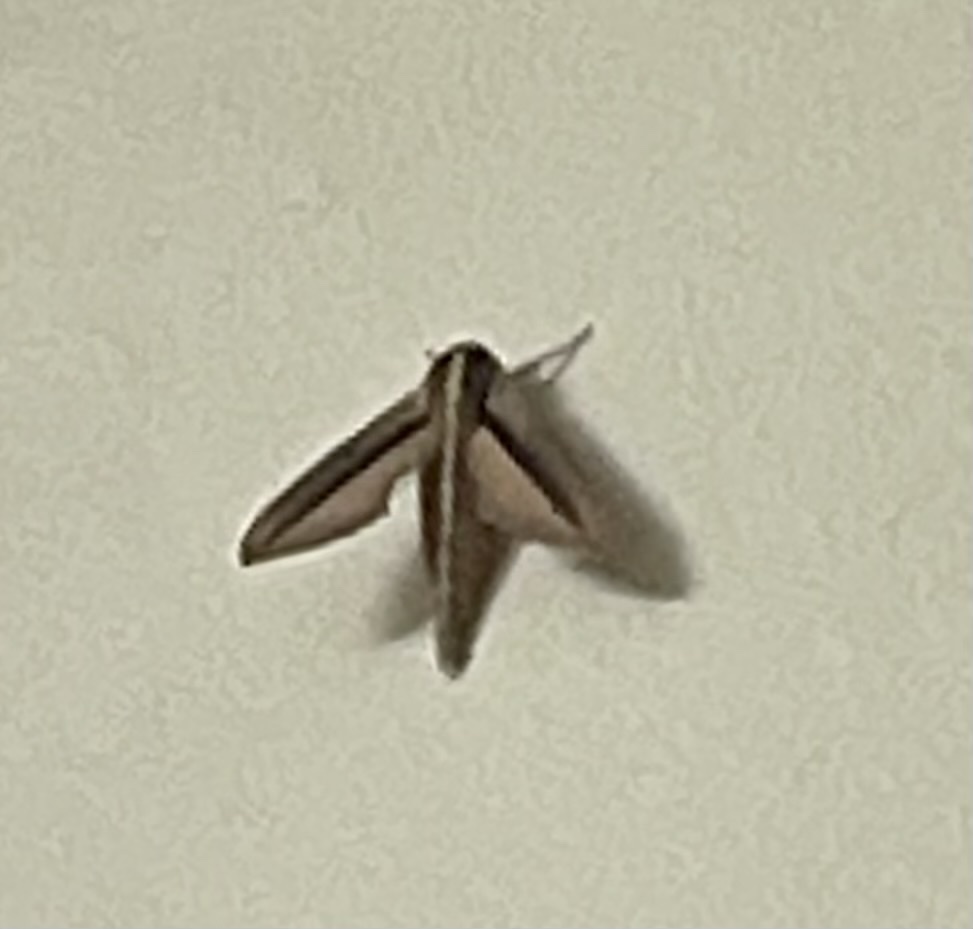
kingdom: Animalia
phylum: Arthropoda
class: Insecta
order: Lepidoptera
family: Sphingidae
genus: Theretra
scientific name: Theretra silhetensis
